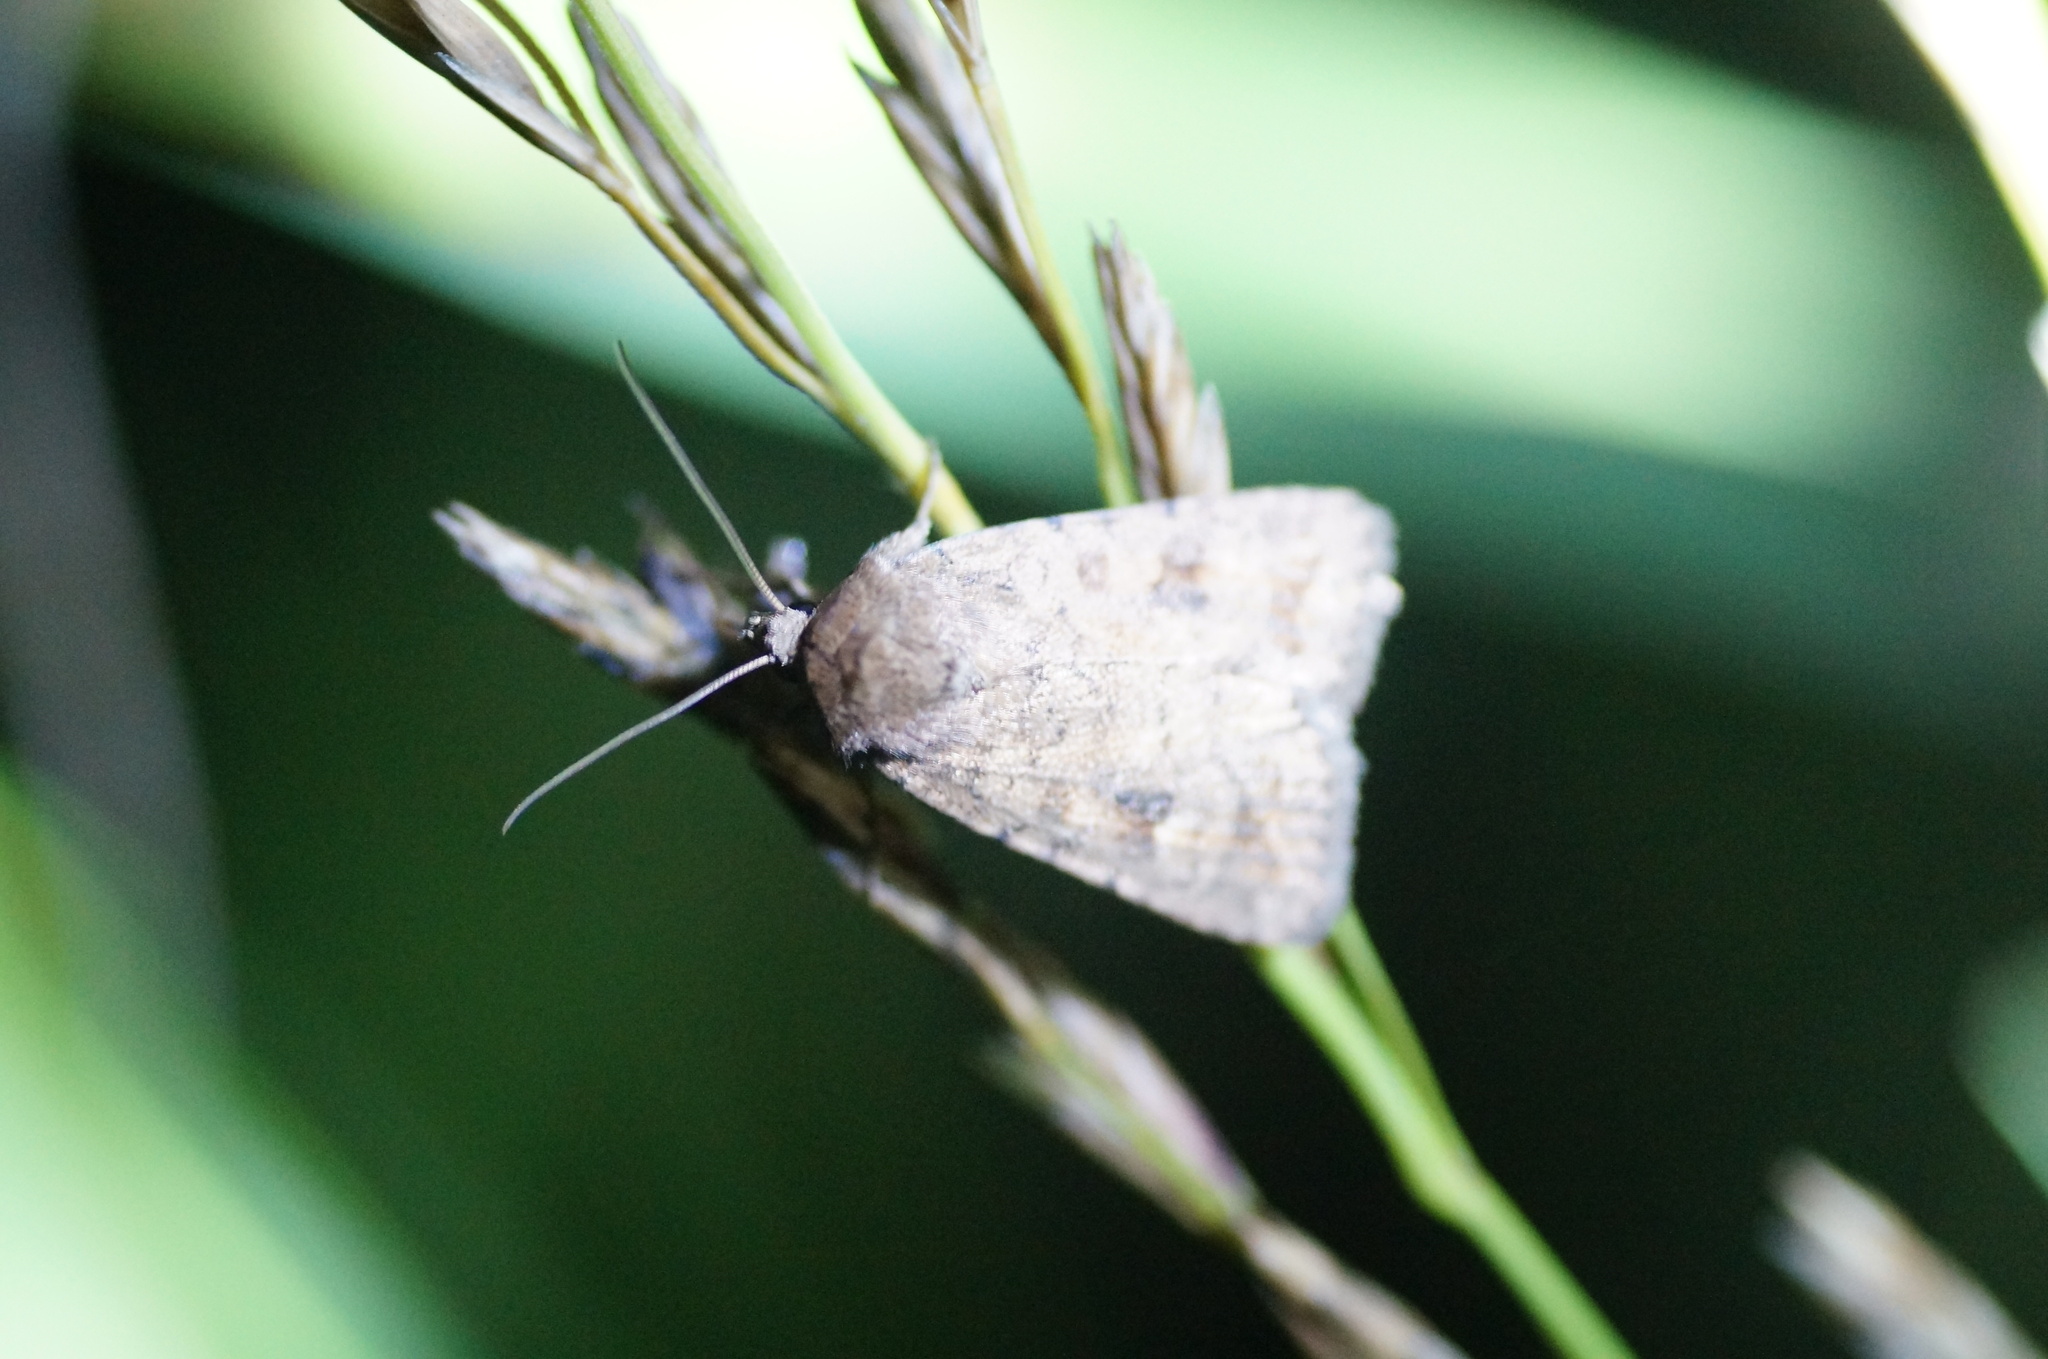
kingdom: Animalia
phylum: Arthropoda
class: Insecta
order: Lepidoptera
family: Noctuidae
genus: Caradrina
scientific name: Caradrina morpheus
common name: Mottled rustic
